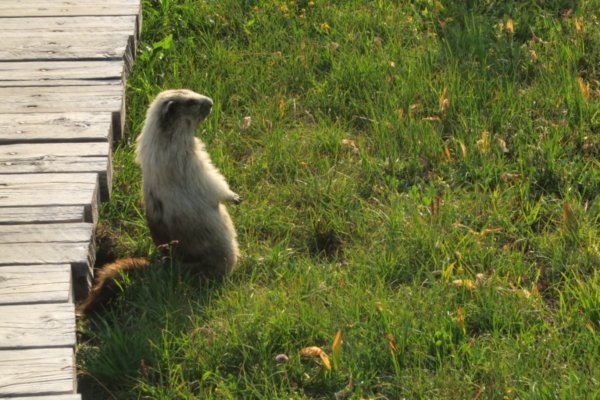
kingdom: Animalia
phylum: Chordata
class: Mammalia
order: Rodentia
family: Sciuridae
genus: Marmota
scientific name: Marmota caligata
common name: Hoary marmot
